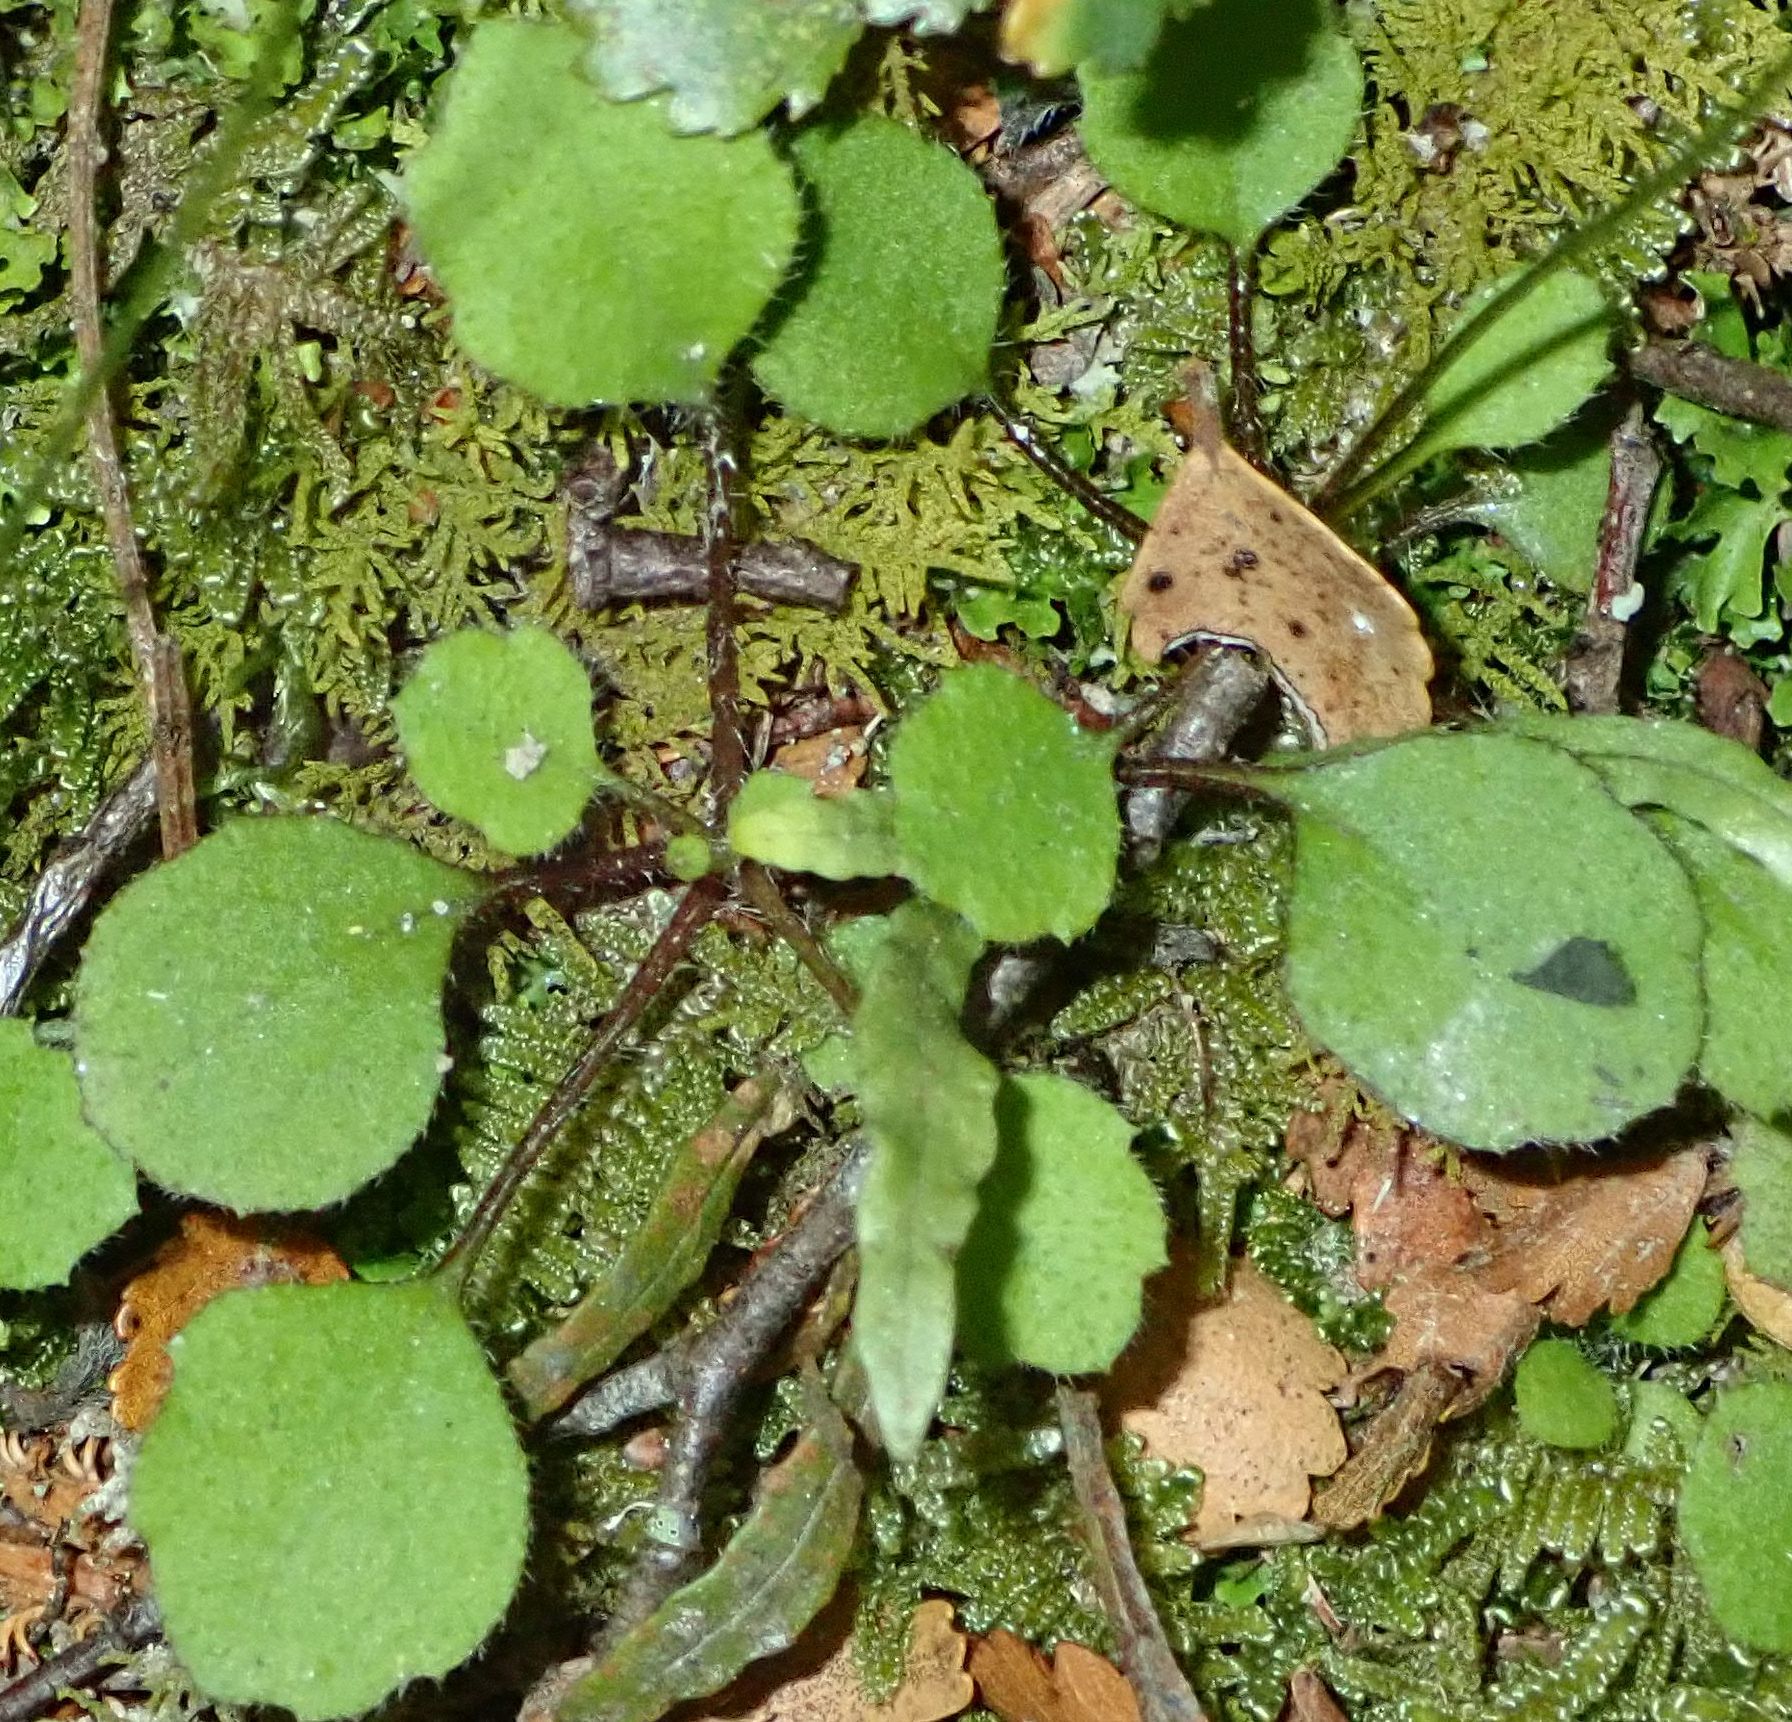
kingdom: Plantae
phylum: Tracheophyta
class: Magnoliopsida
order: Asterales
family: Asteraceae
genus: Lagenophora
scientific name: Lagenophora strangulata
